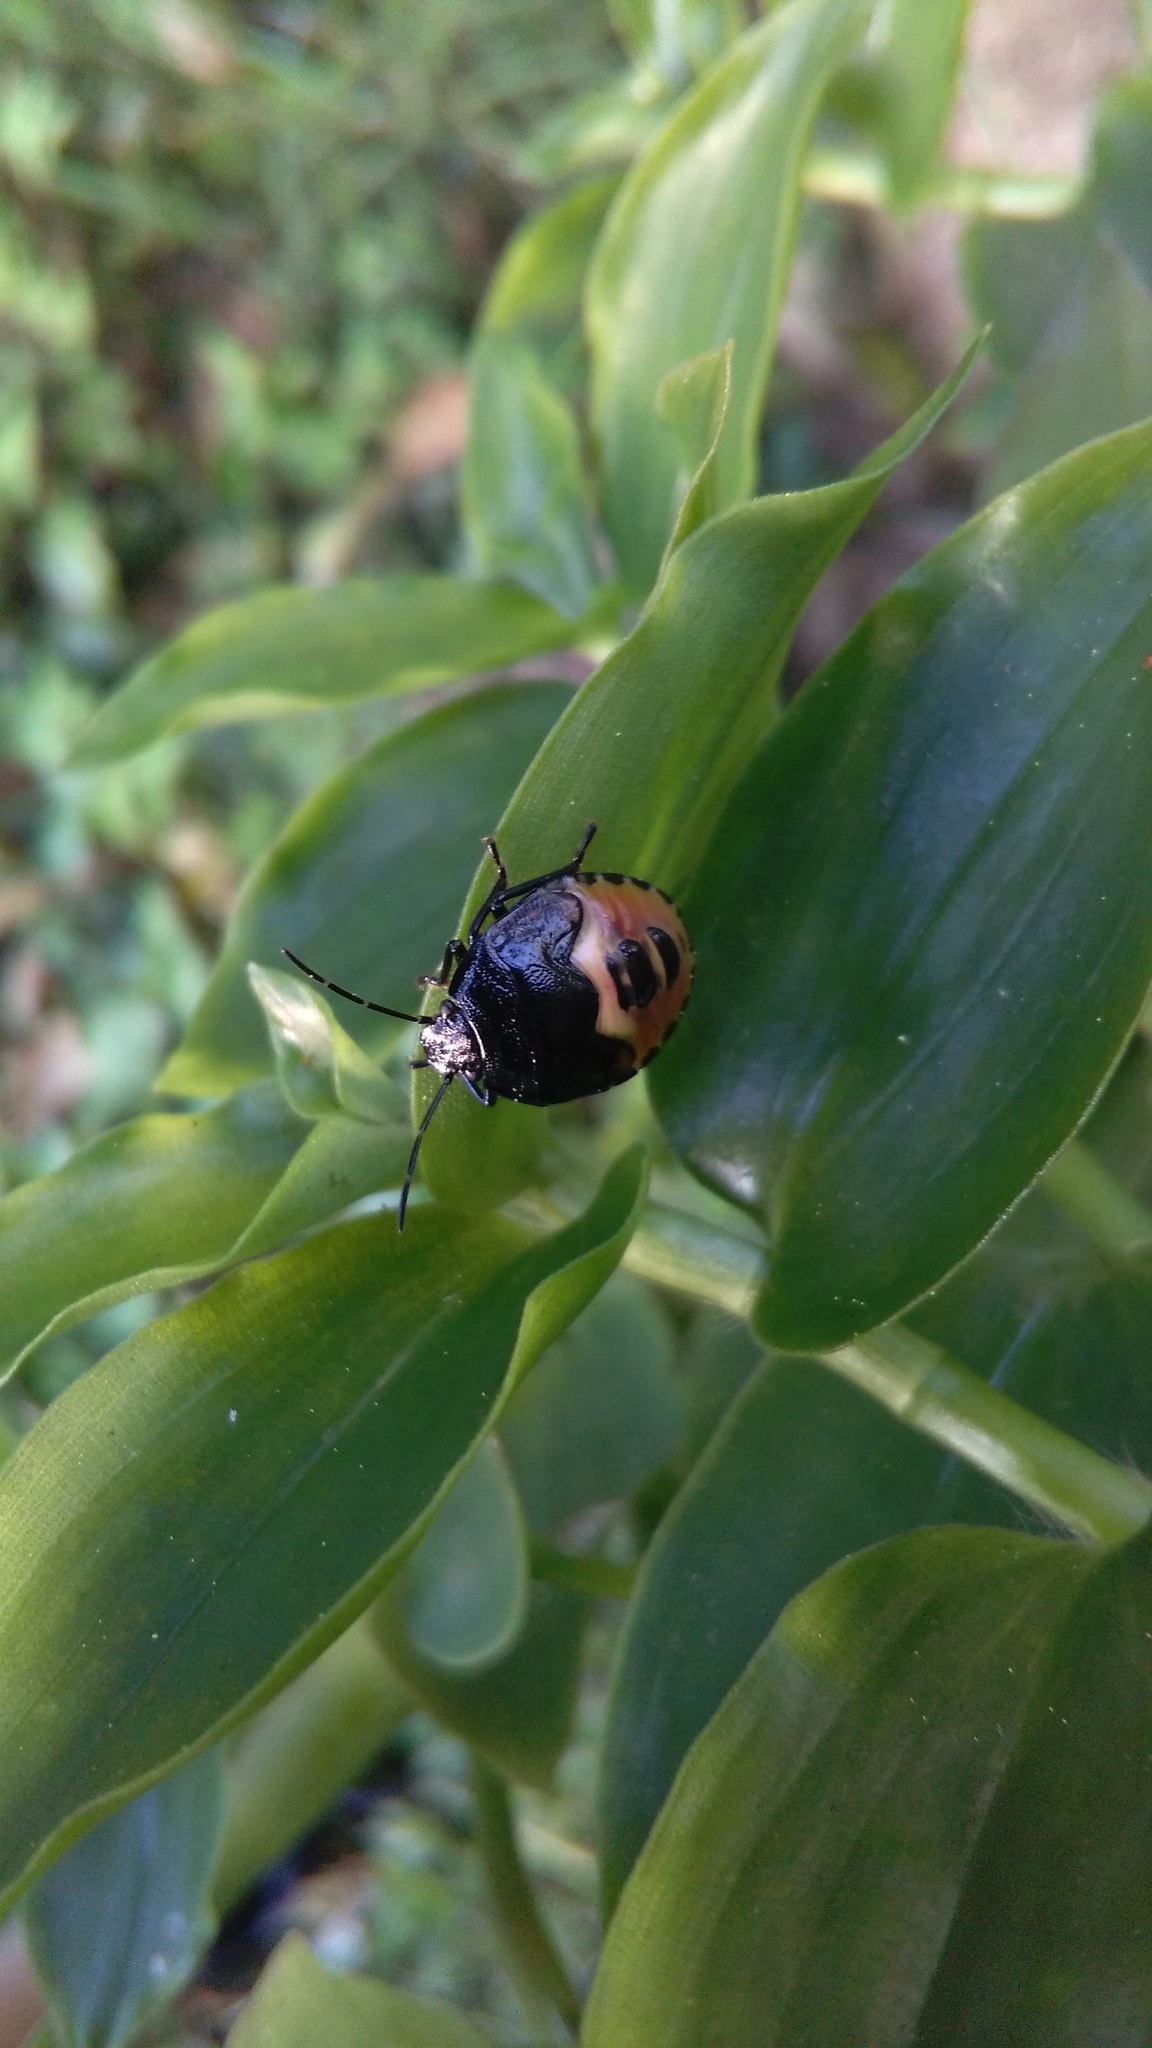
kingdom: Animalia
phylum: Arthropoda
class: Insecta
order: Hemiptera
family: Pentatomidae
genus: Glaucias
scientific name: Glaucias amyota
